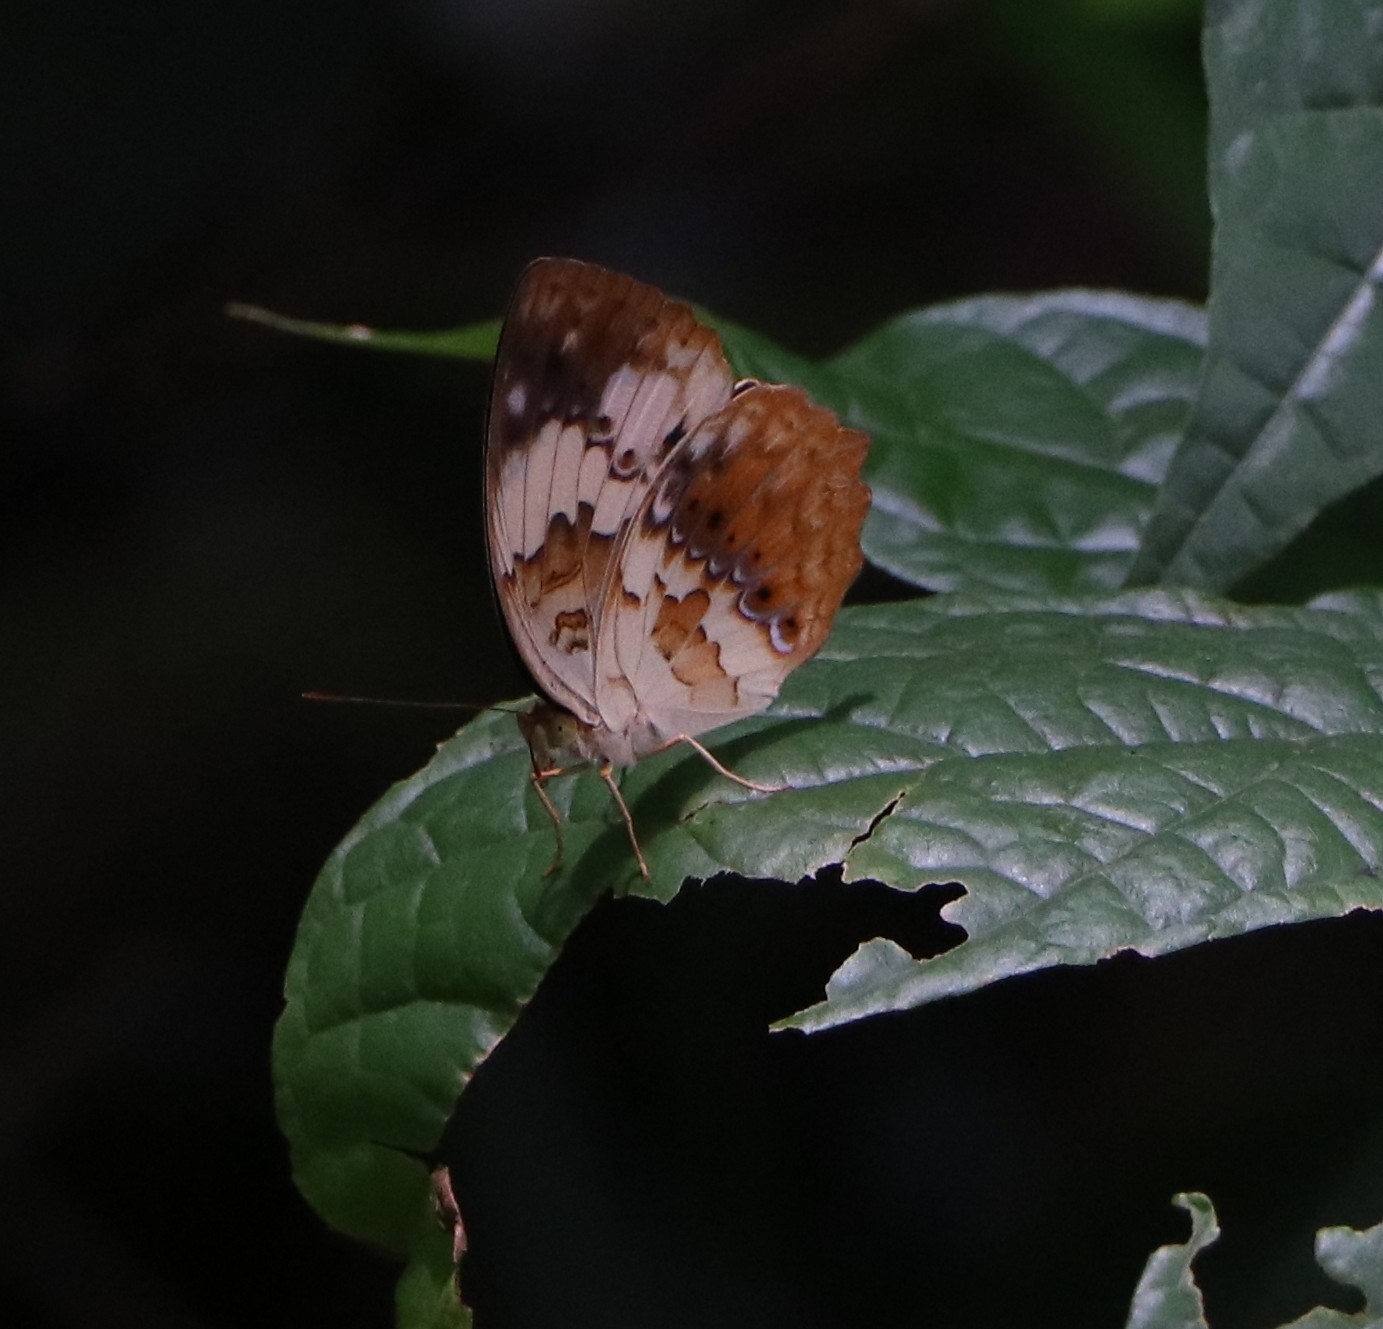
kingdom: Animalia
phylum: Arthropoda
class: Insecta
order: Lepidoptera
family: Nymphalidae
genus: Cupha
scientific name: Cupha erymanthis
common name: Rustic
